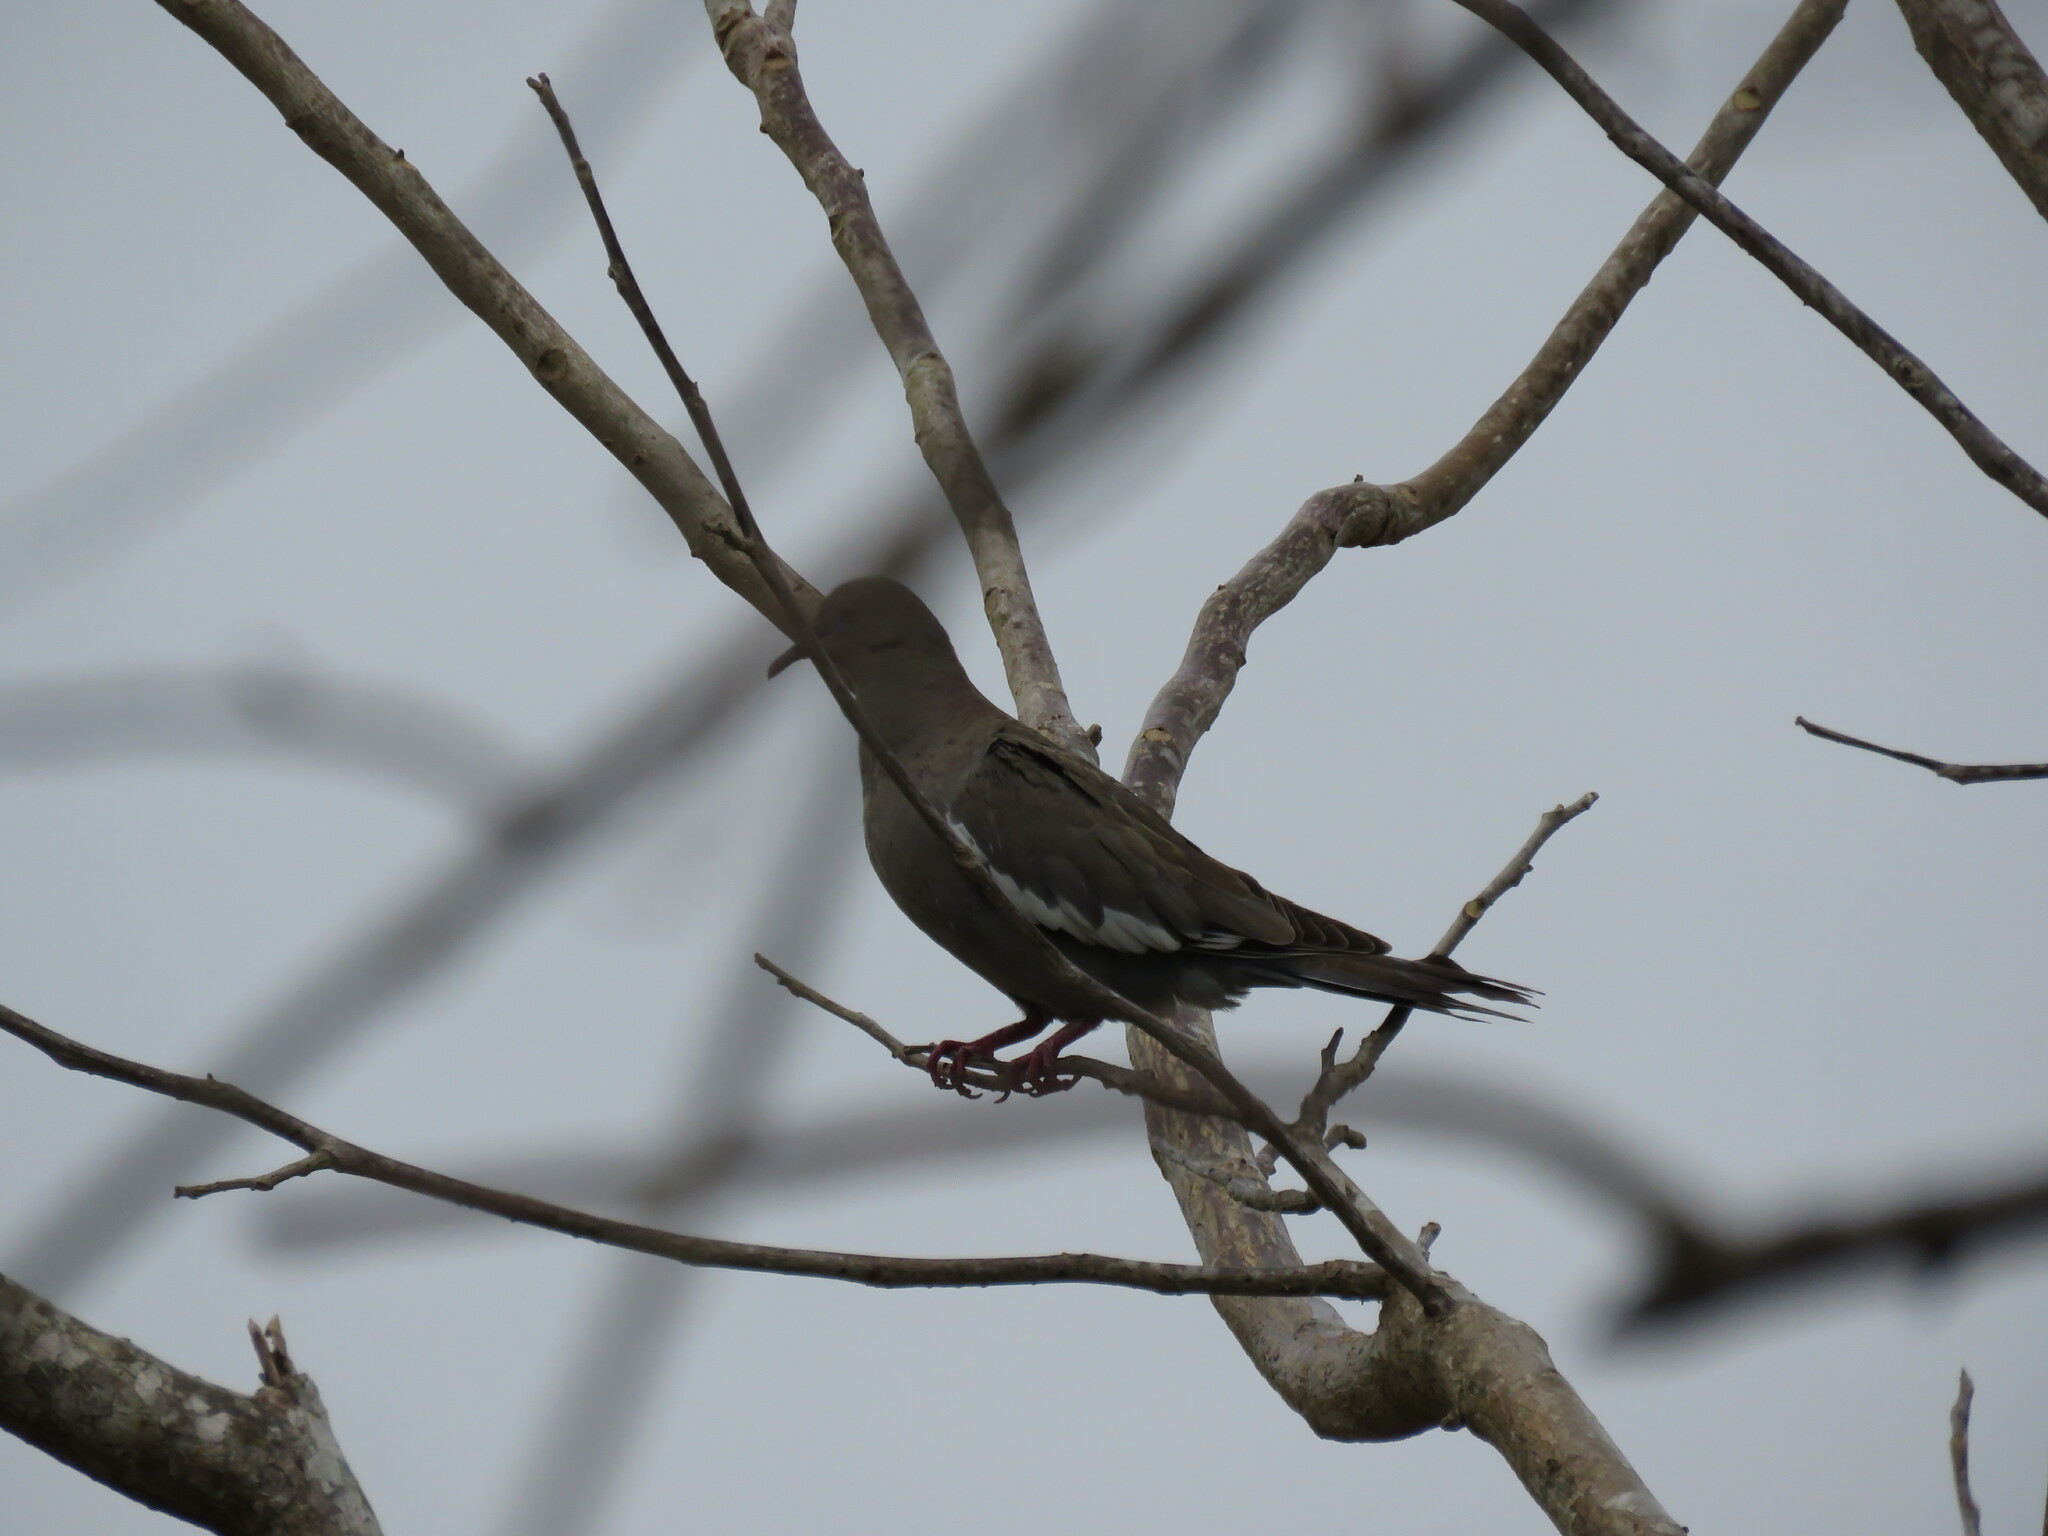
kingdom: Animalia
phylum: Chordata
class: Aves
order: Columbiformes
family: Columbidae
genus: Zenaida
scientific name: Zenaida asiatica
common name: White-winged dove
